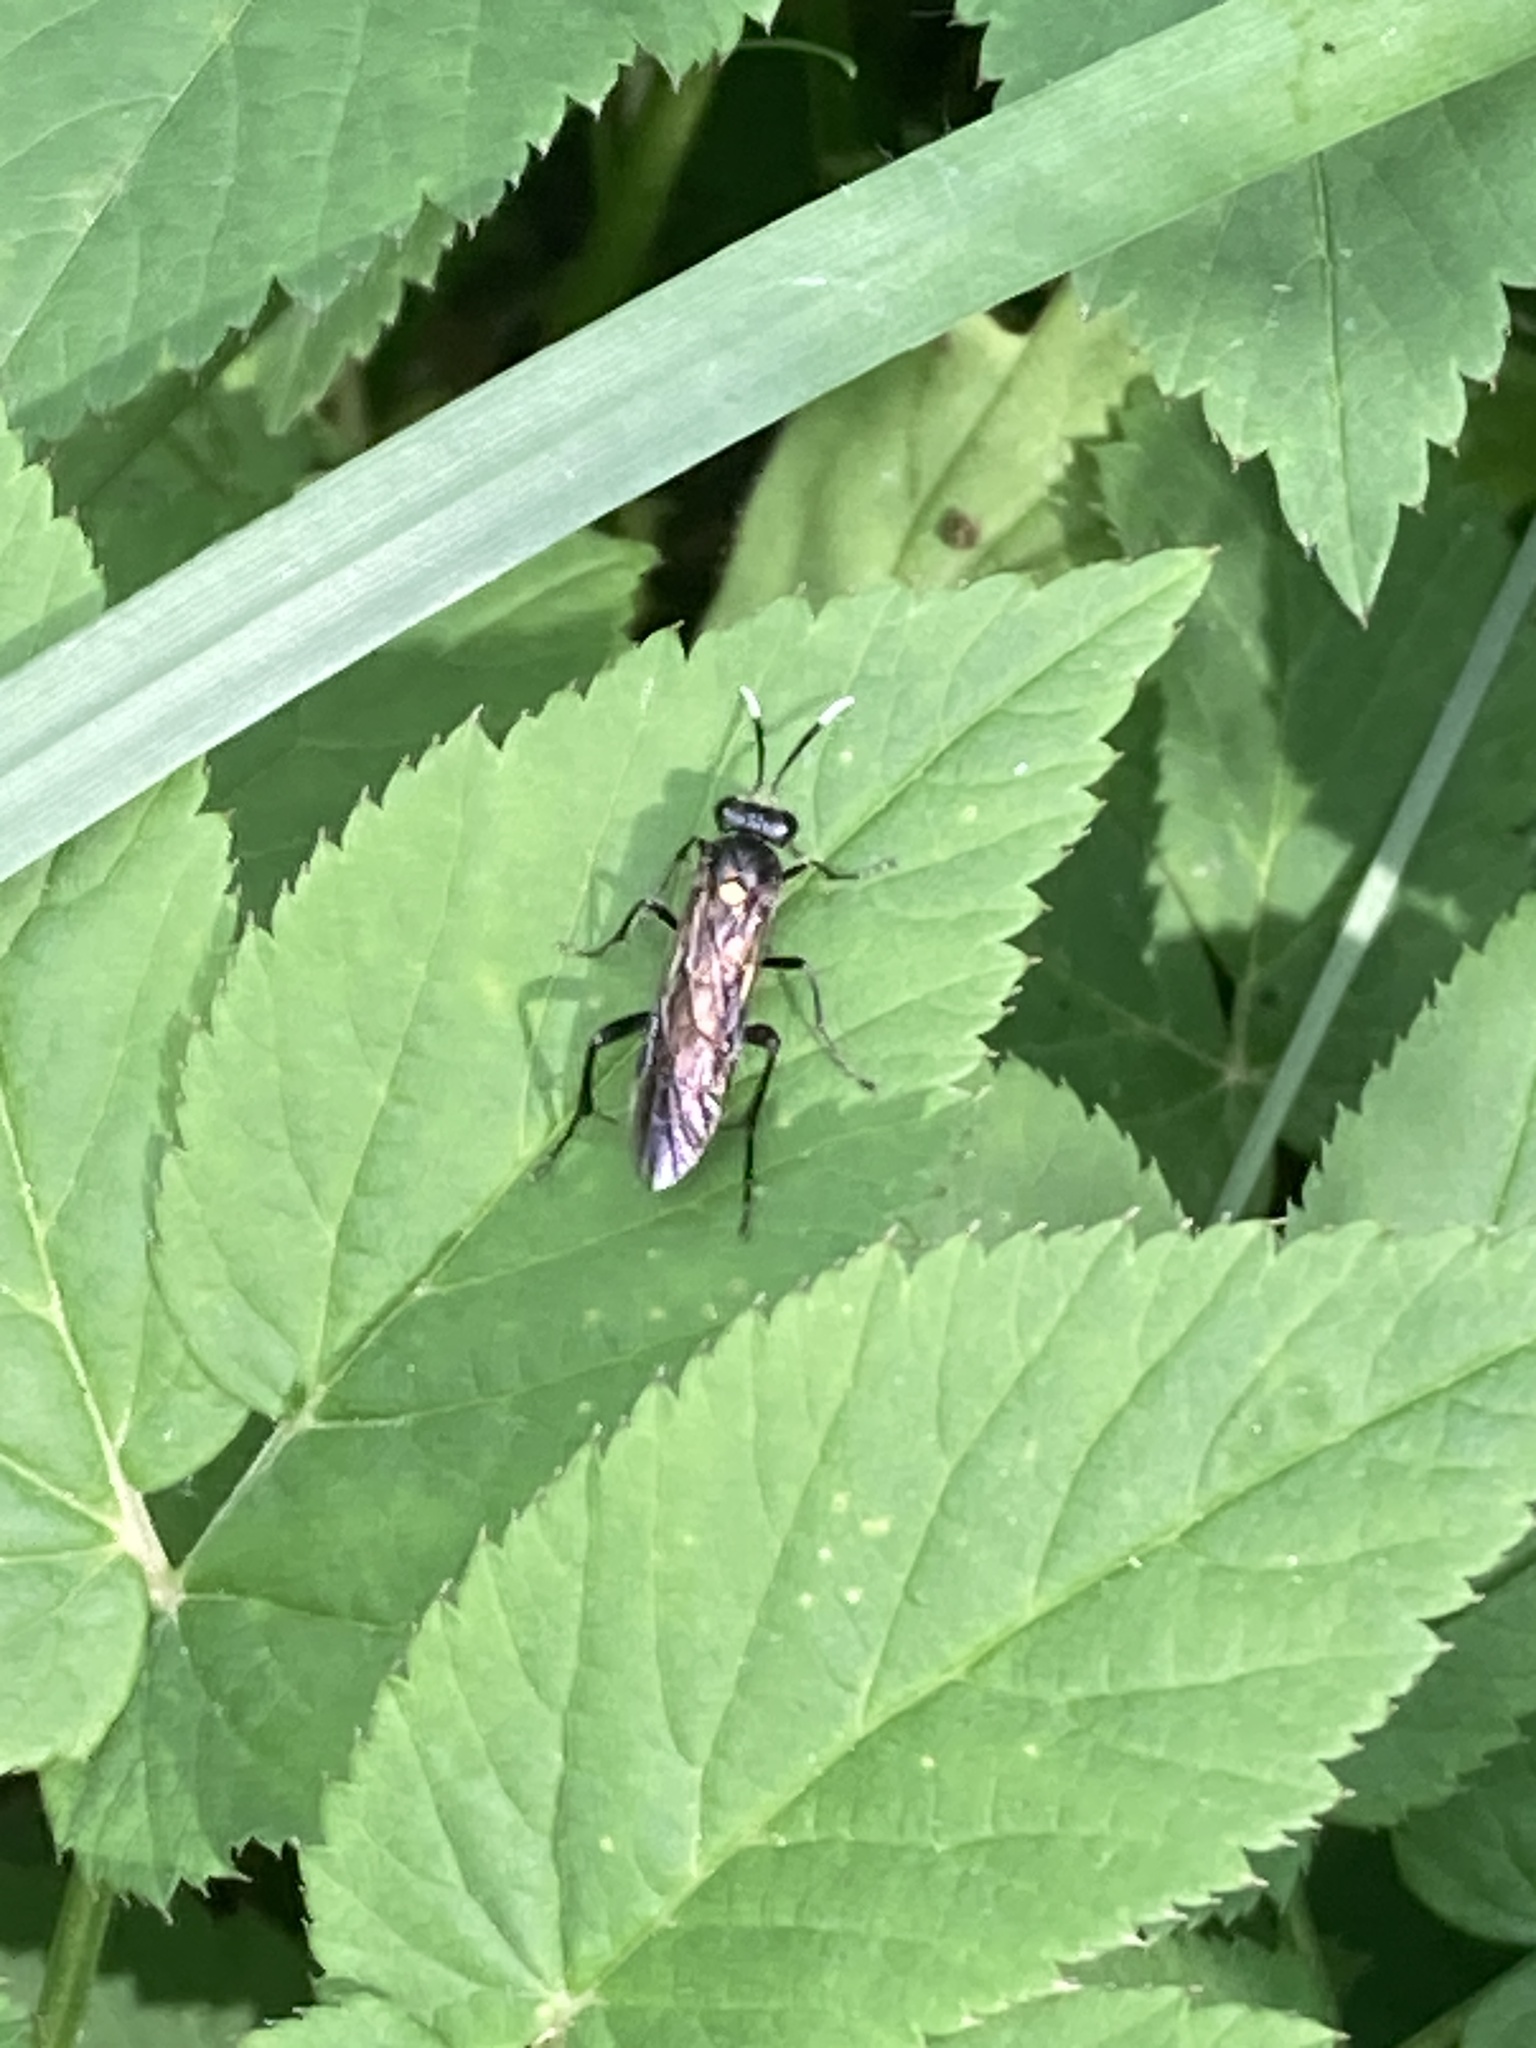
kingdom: Animalia
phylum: Arthropoda
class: Insecta
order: Hymenoptera
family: Tenthredinidae
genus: Macrophya
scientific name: Macrophya infumata
